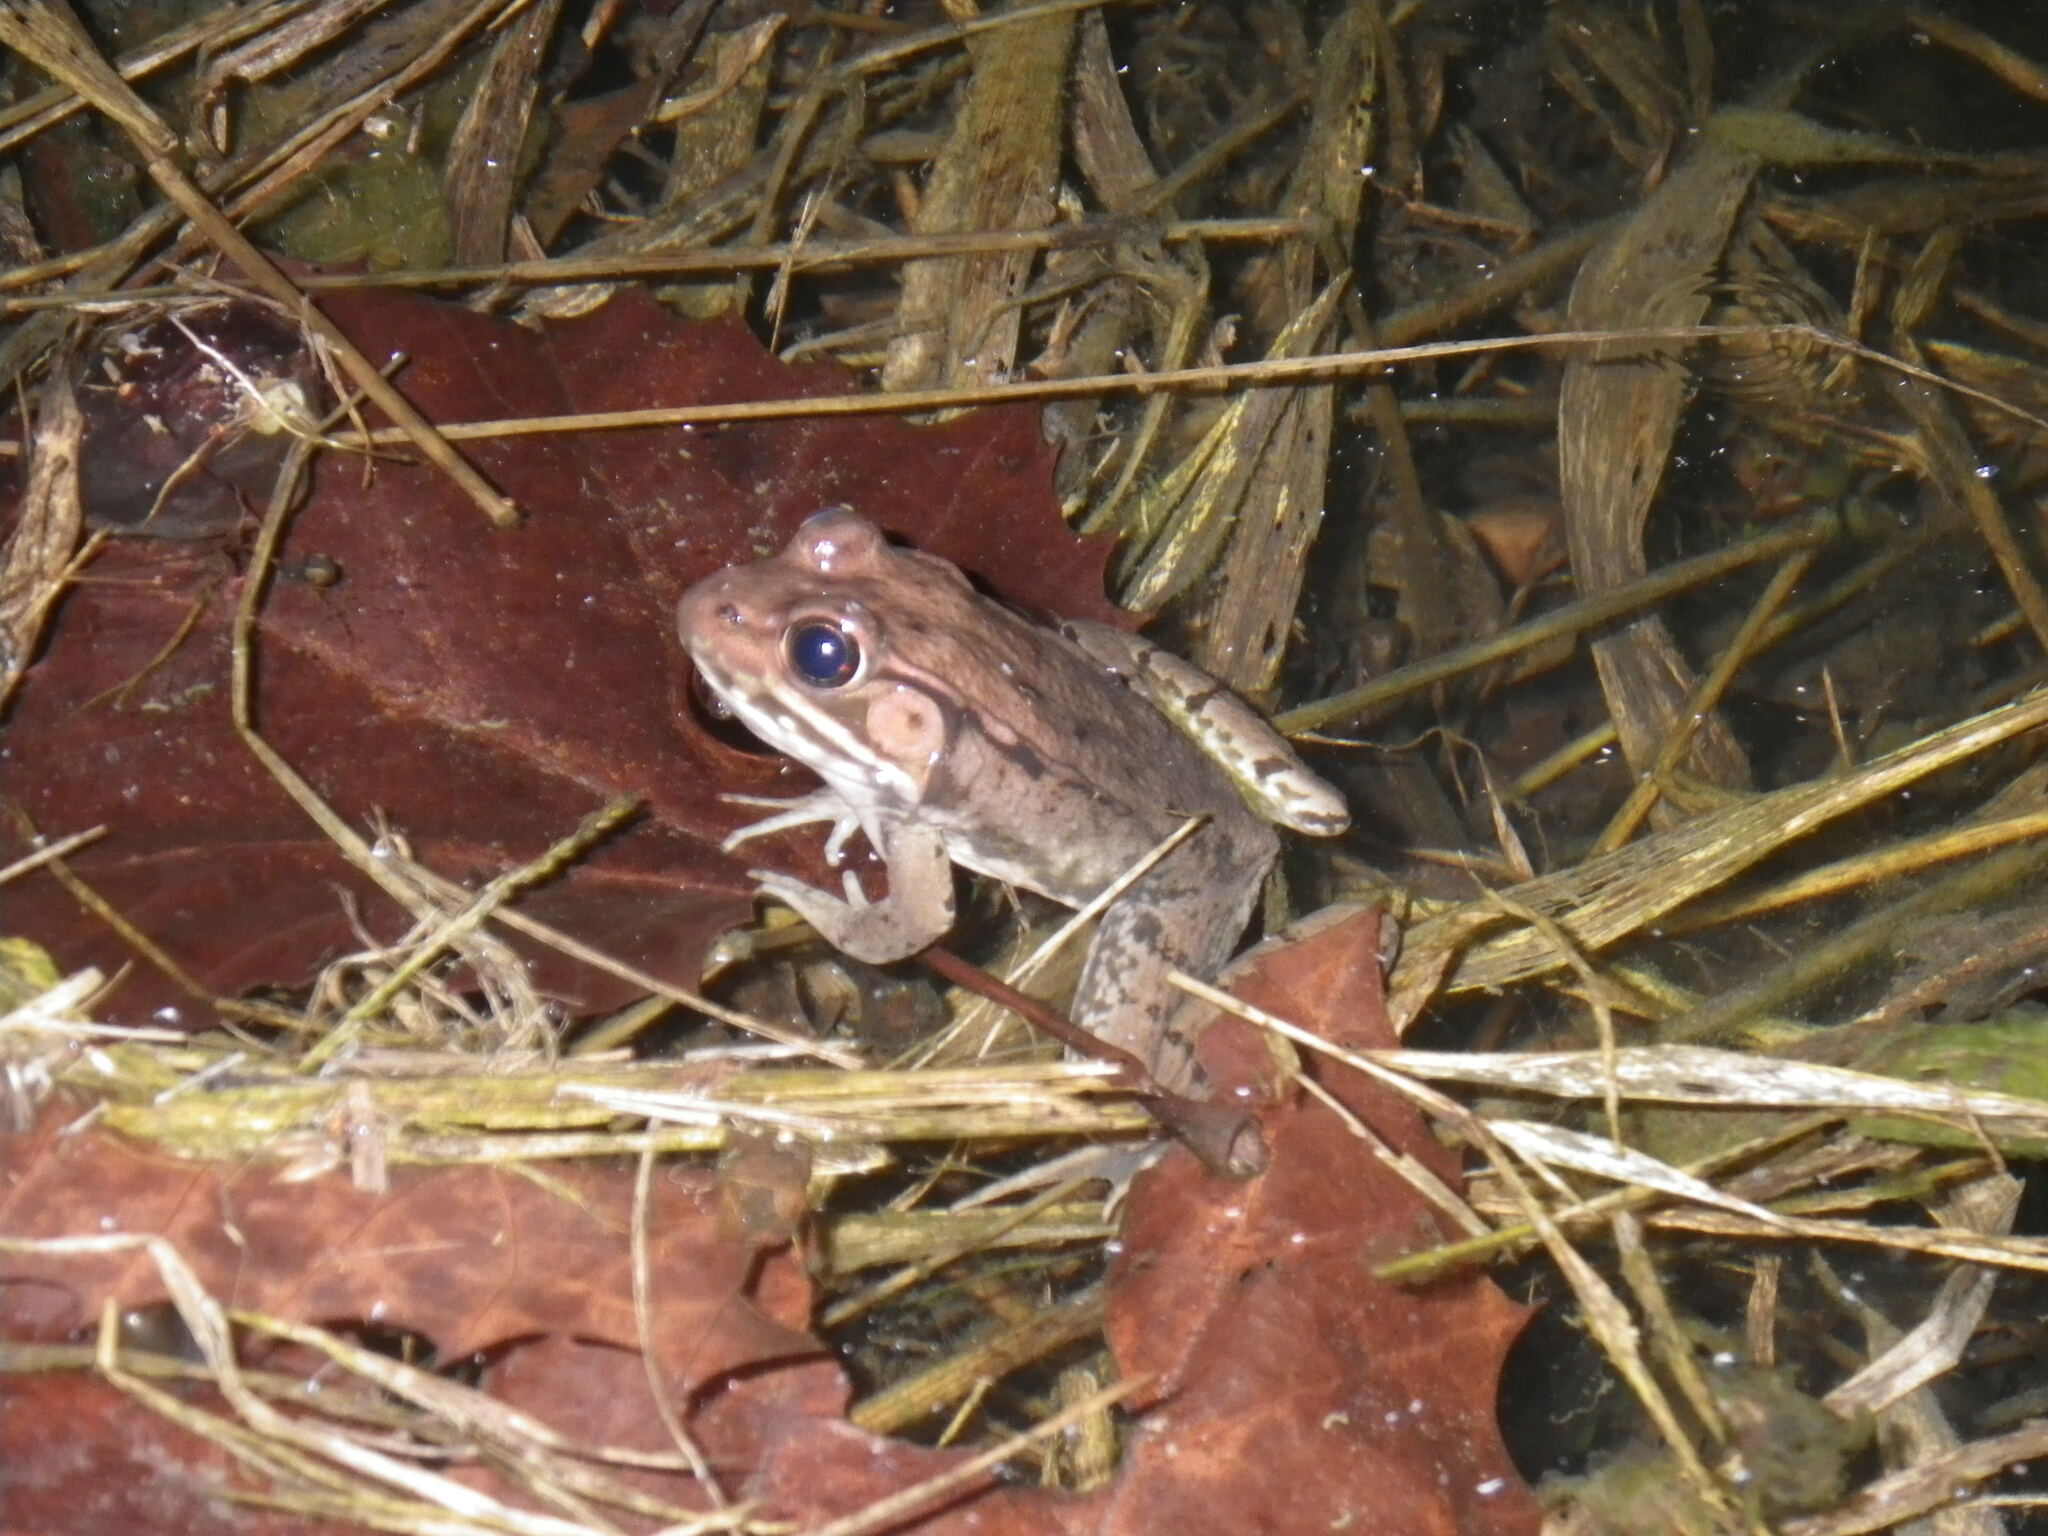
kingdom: Animalia
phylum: Chordata
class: Amphibia
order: Anura
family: Ranidae
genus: Lithobates
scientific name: Lithobates clamitans
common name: Green frog
